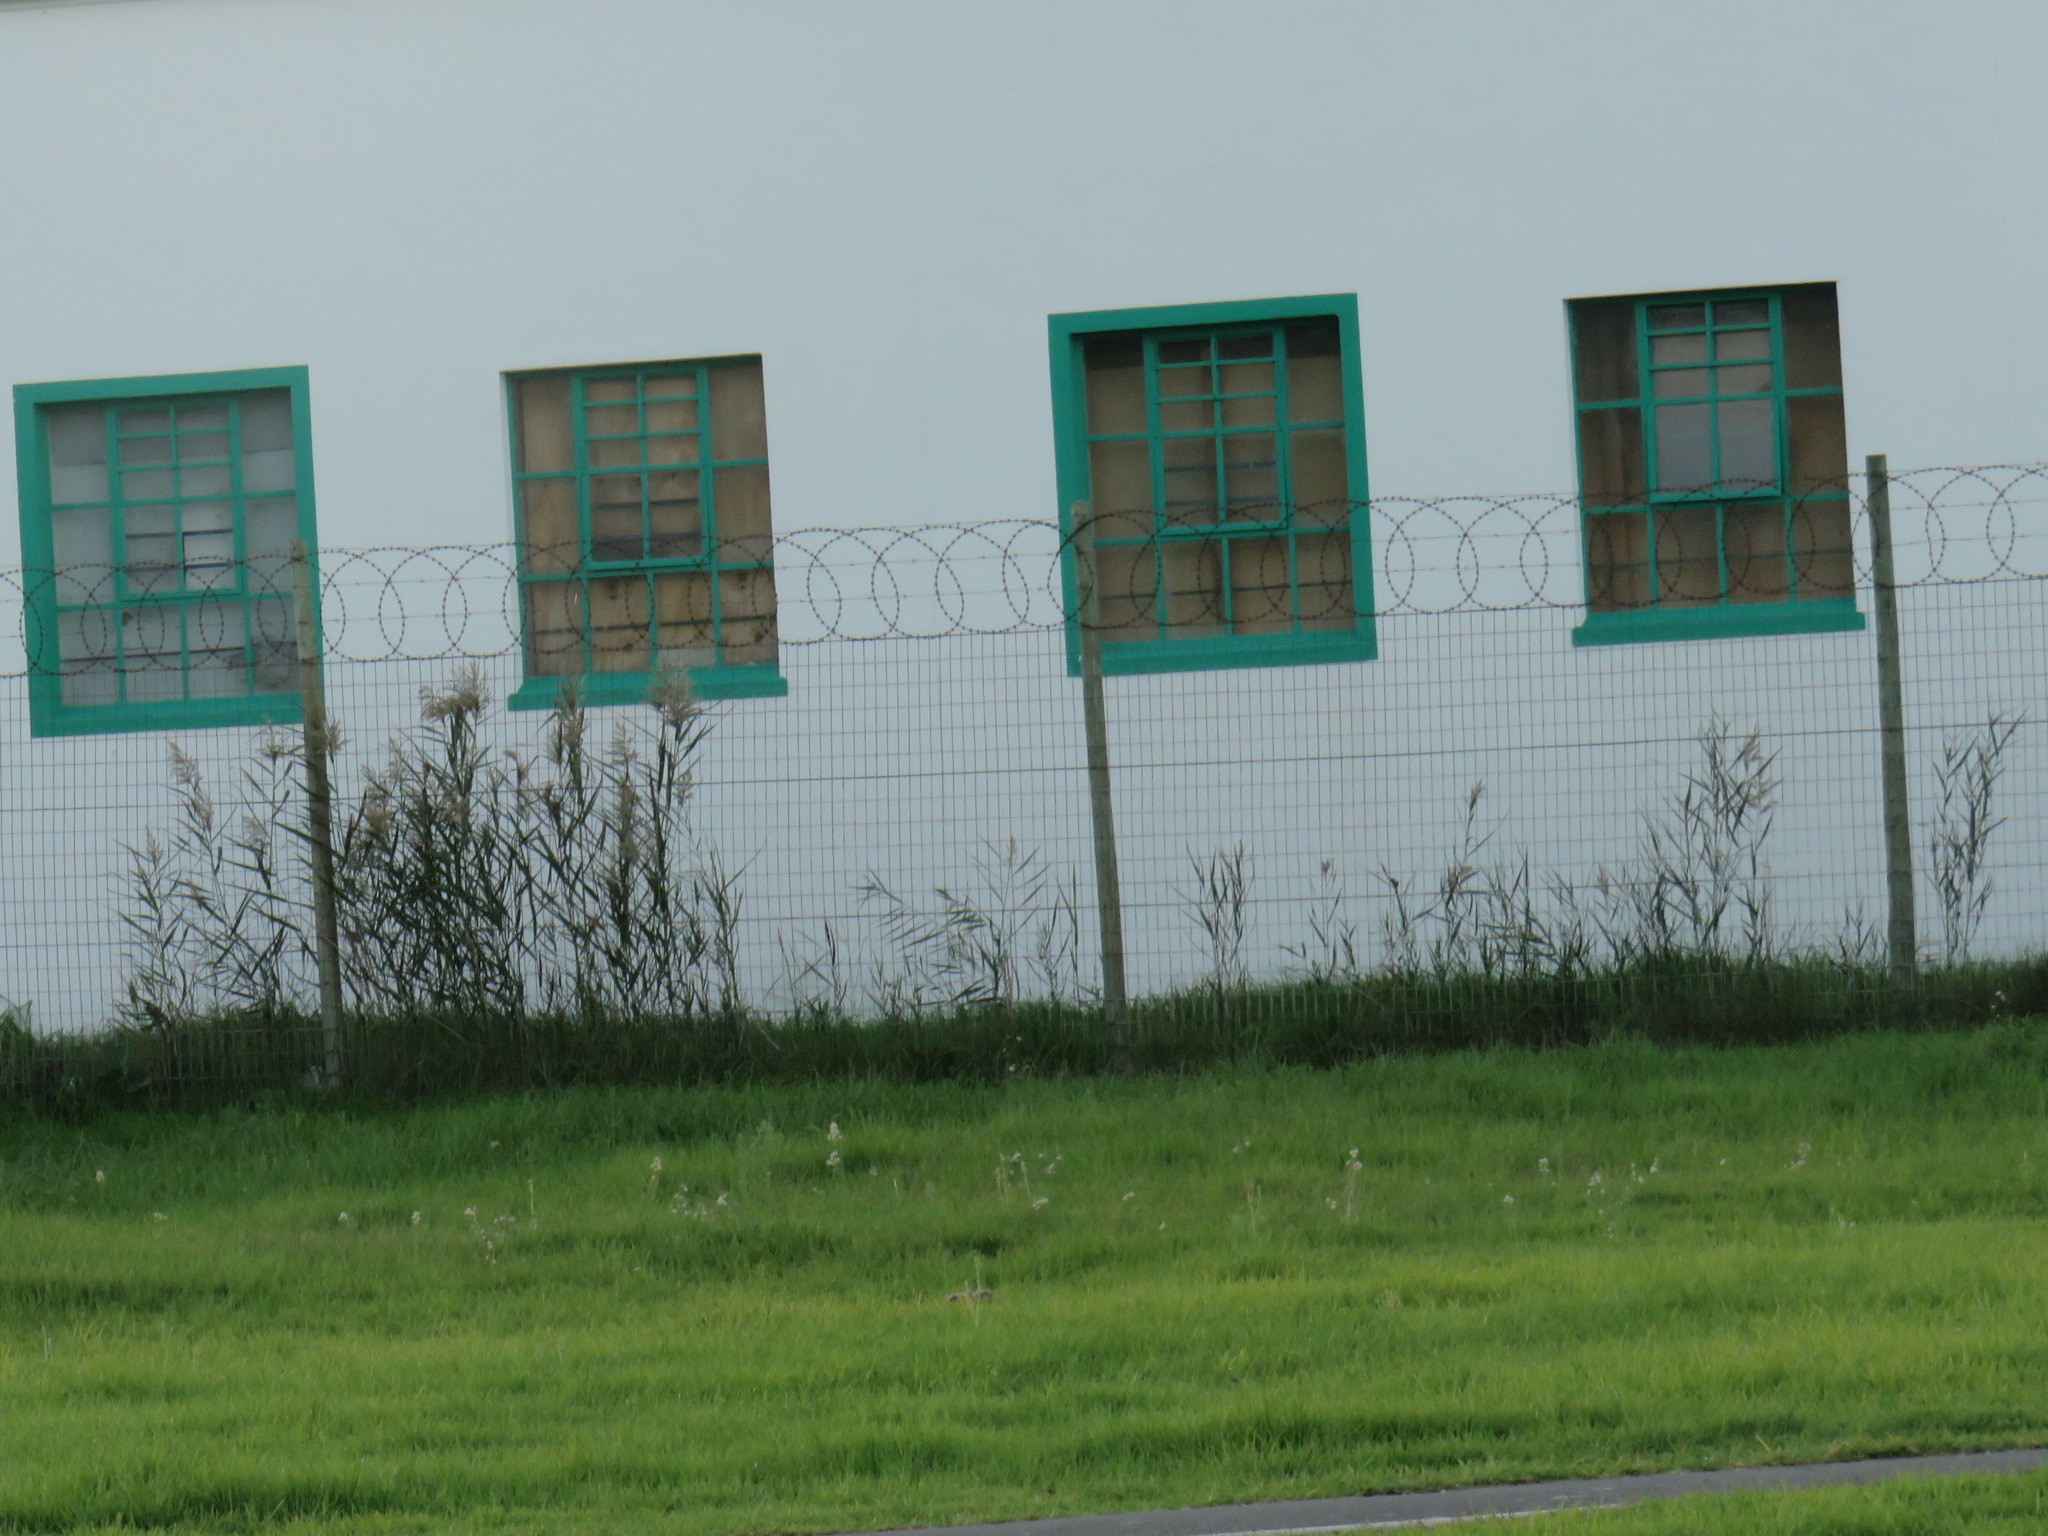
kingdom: Plantae
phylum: Tracheophyta
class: Liliopsida
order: Poales
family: Poaceae
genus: Phragmites
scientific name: Phragmites australis
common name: Common reed
